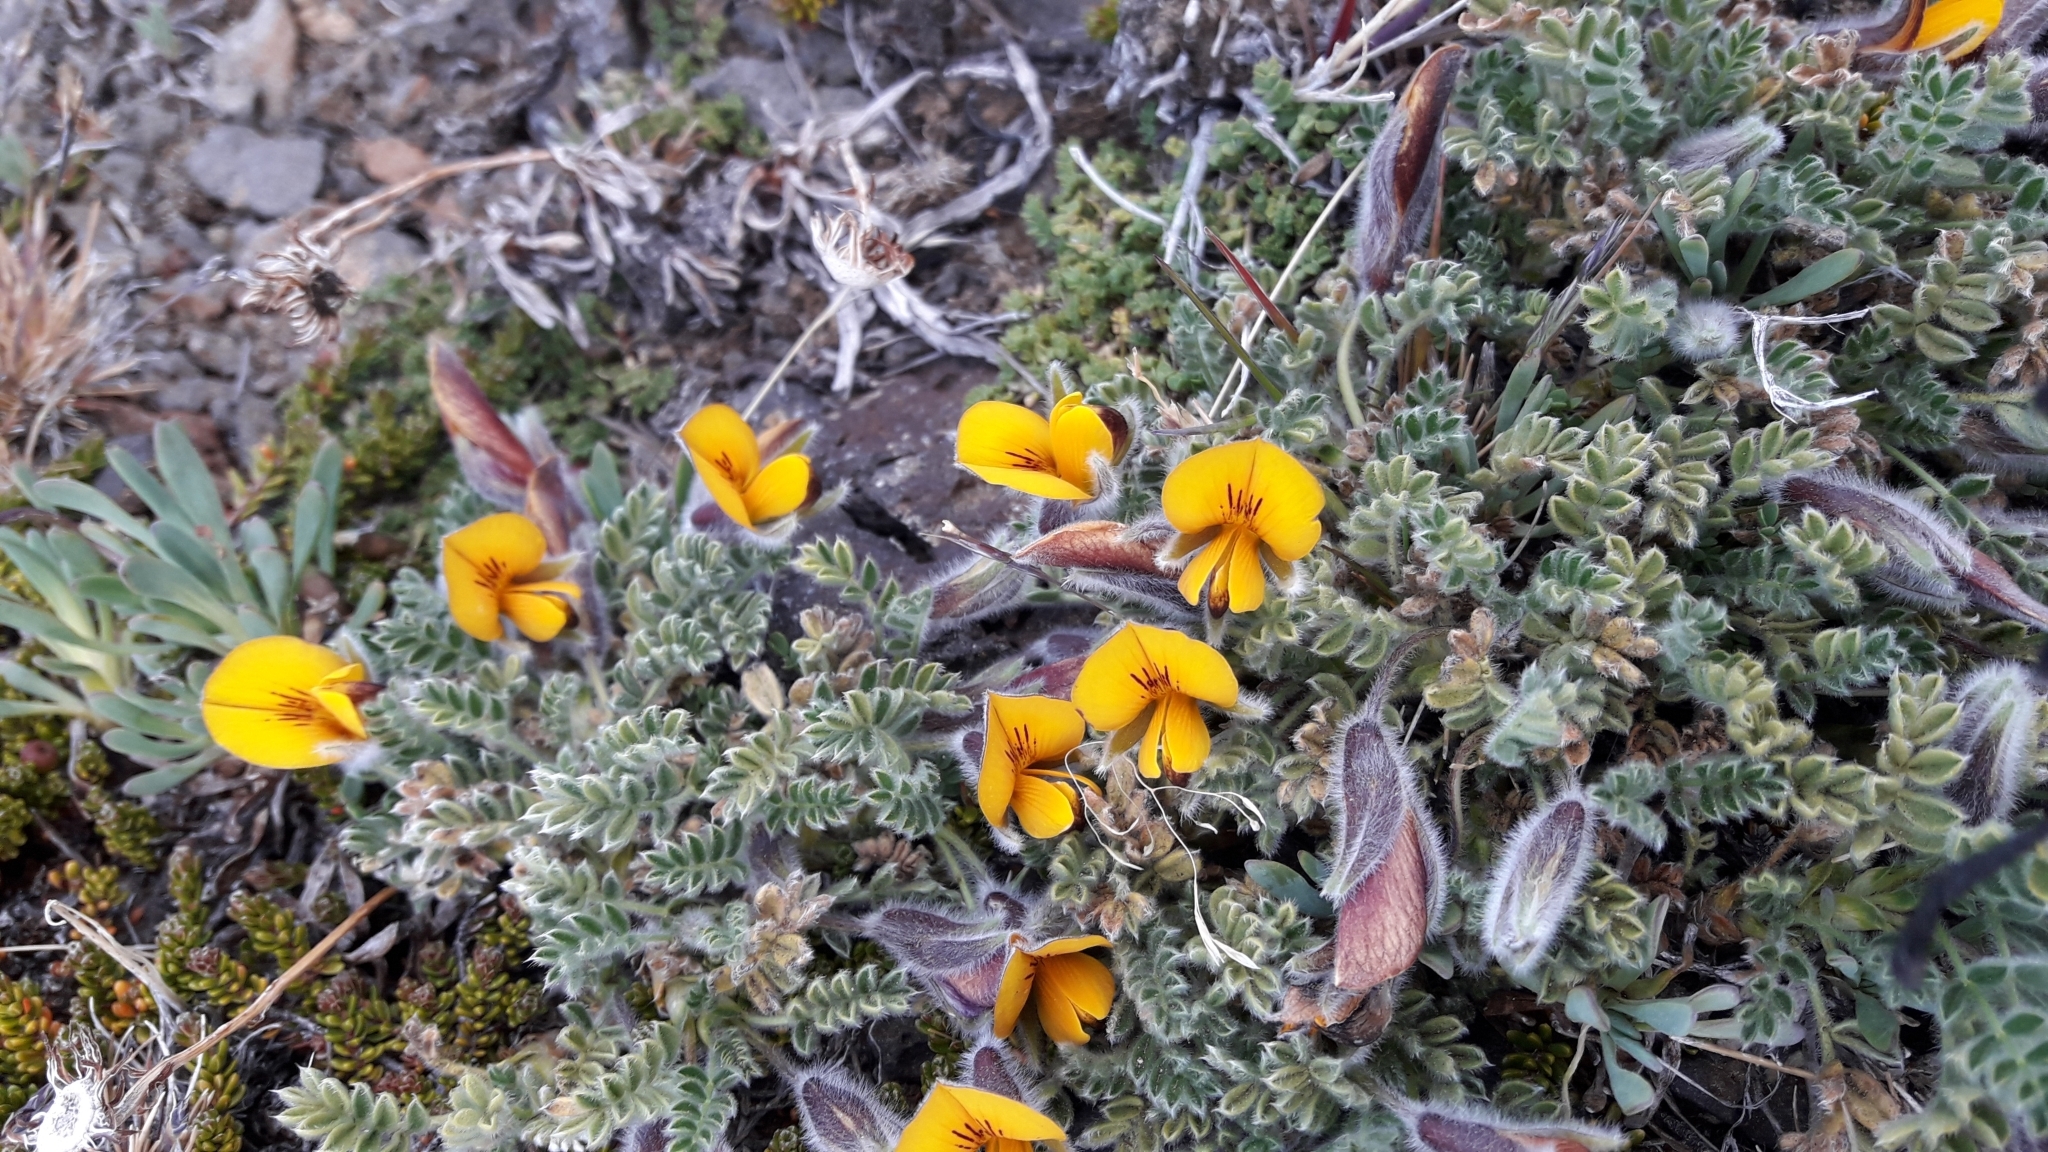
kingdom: Plantae
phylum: Tracheophyta
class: Magnoliopsida
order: Fabales
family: Fabaceae
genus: Adesmia
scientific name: Adesmia villosa
